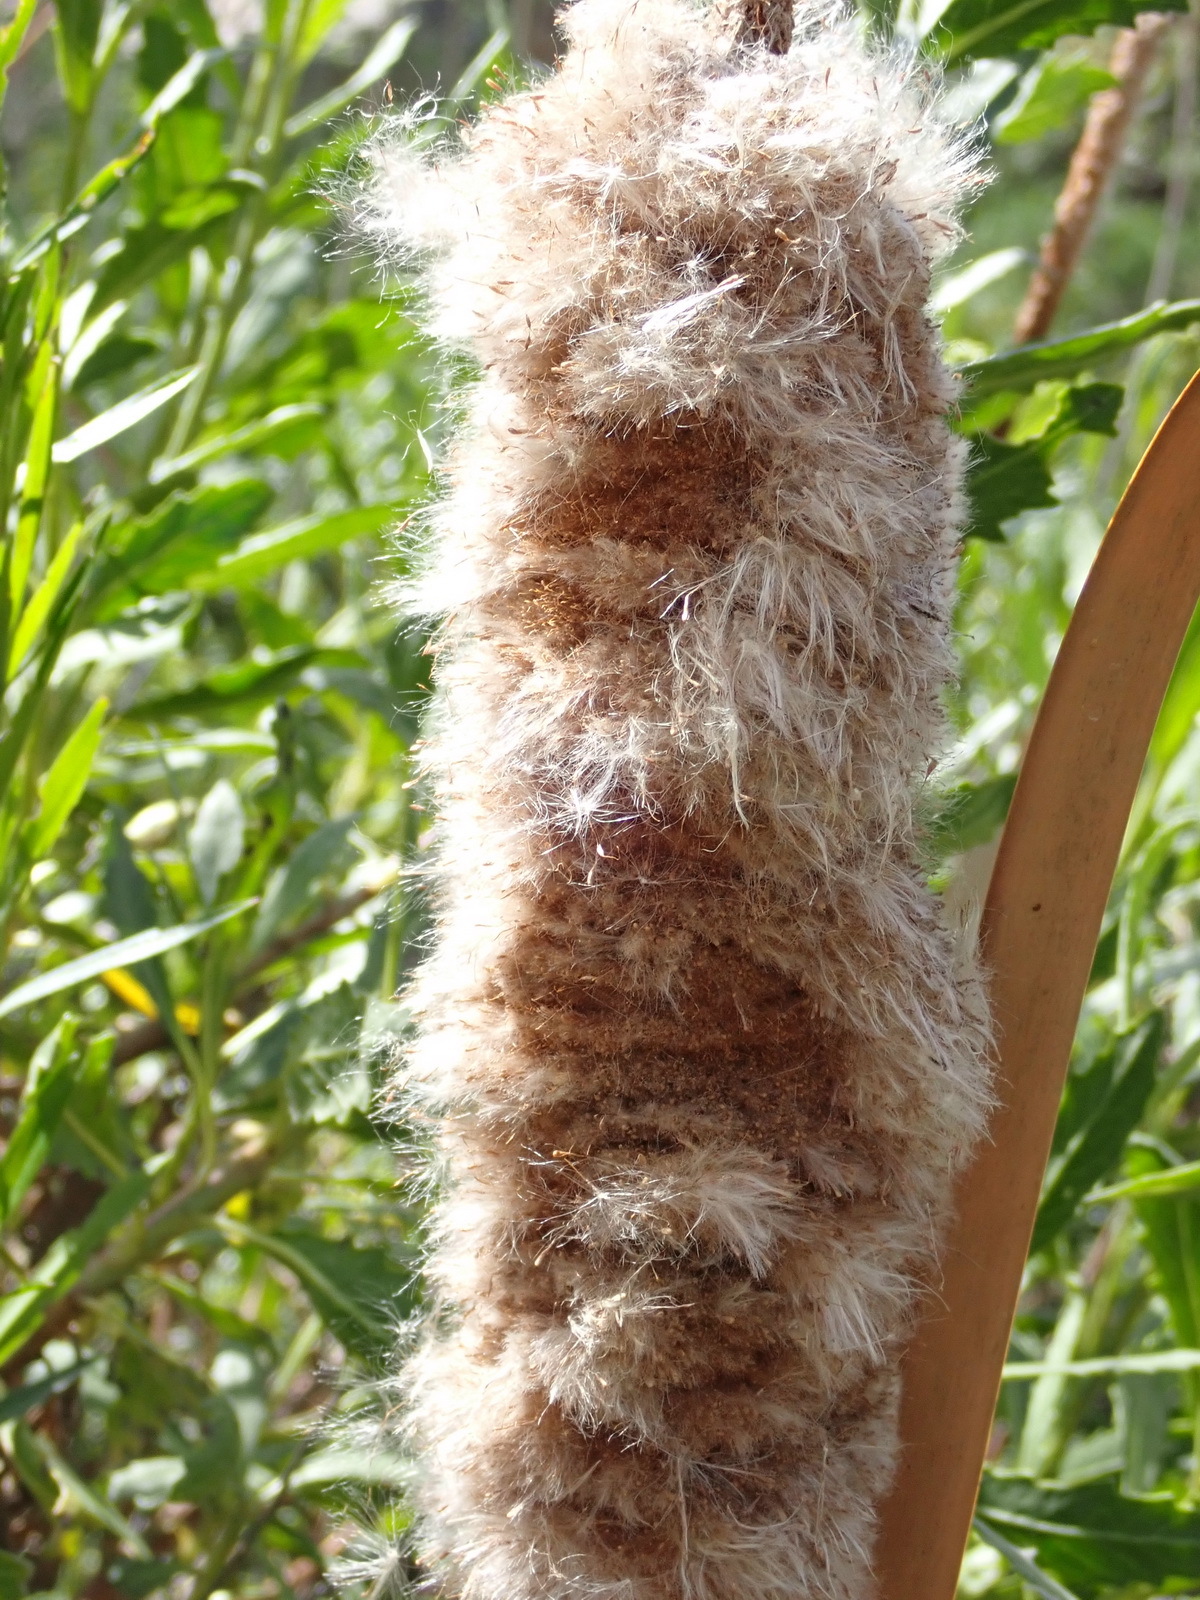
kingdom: Plantae
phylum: Tracheophyta
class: Liliopsida
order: Poales
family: Typhaceae
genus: Typha
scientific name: Typha capensis
